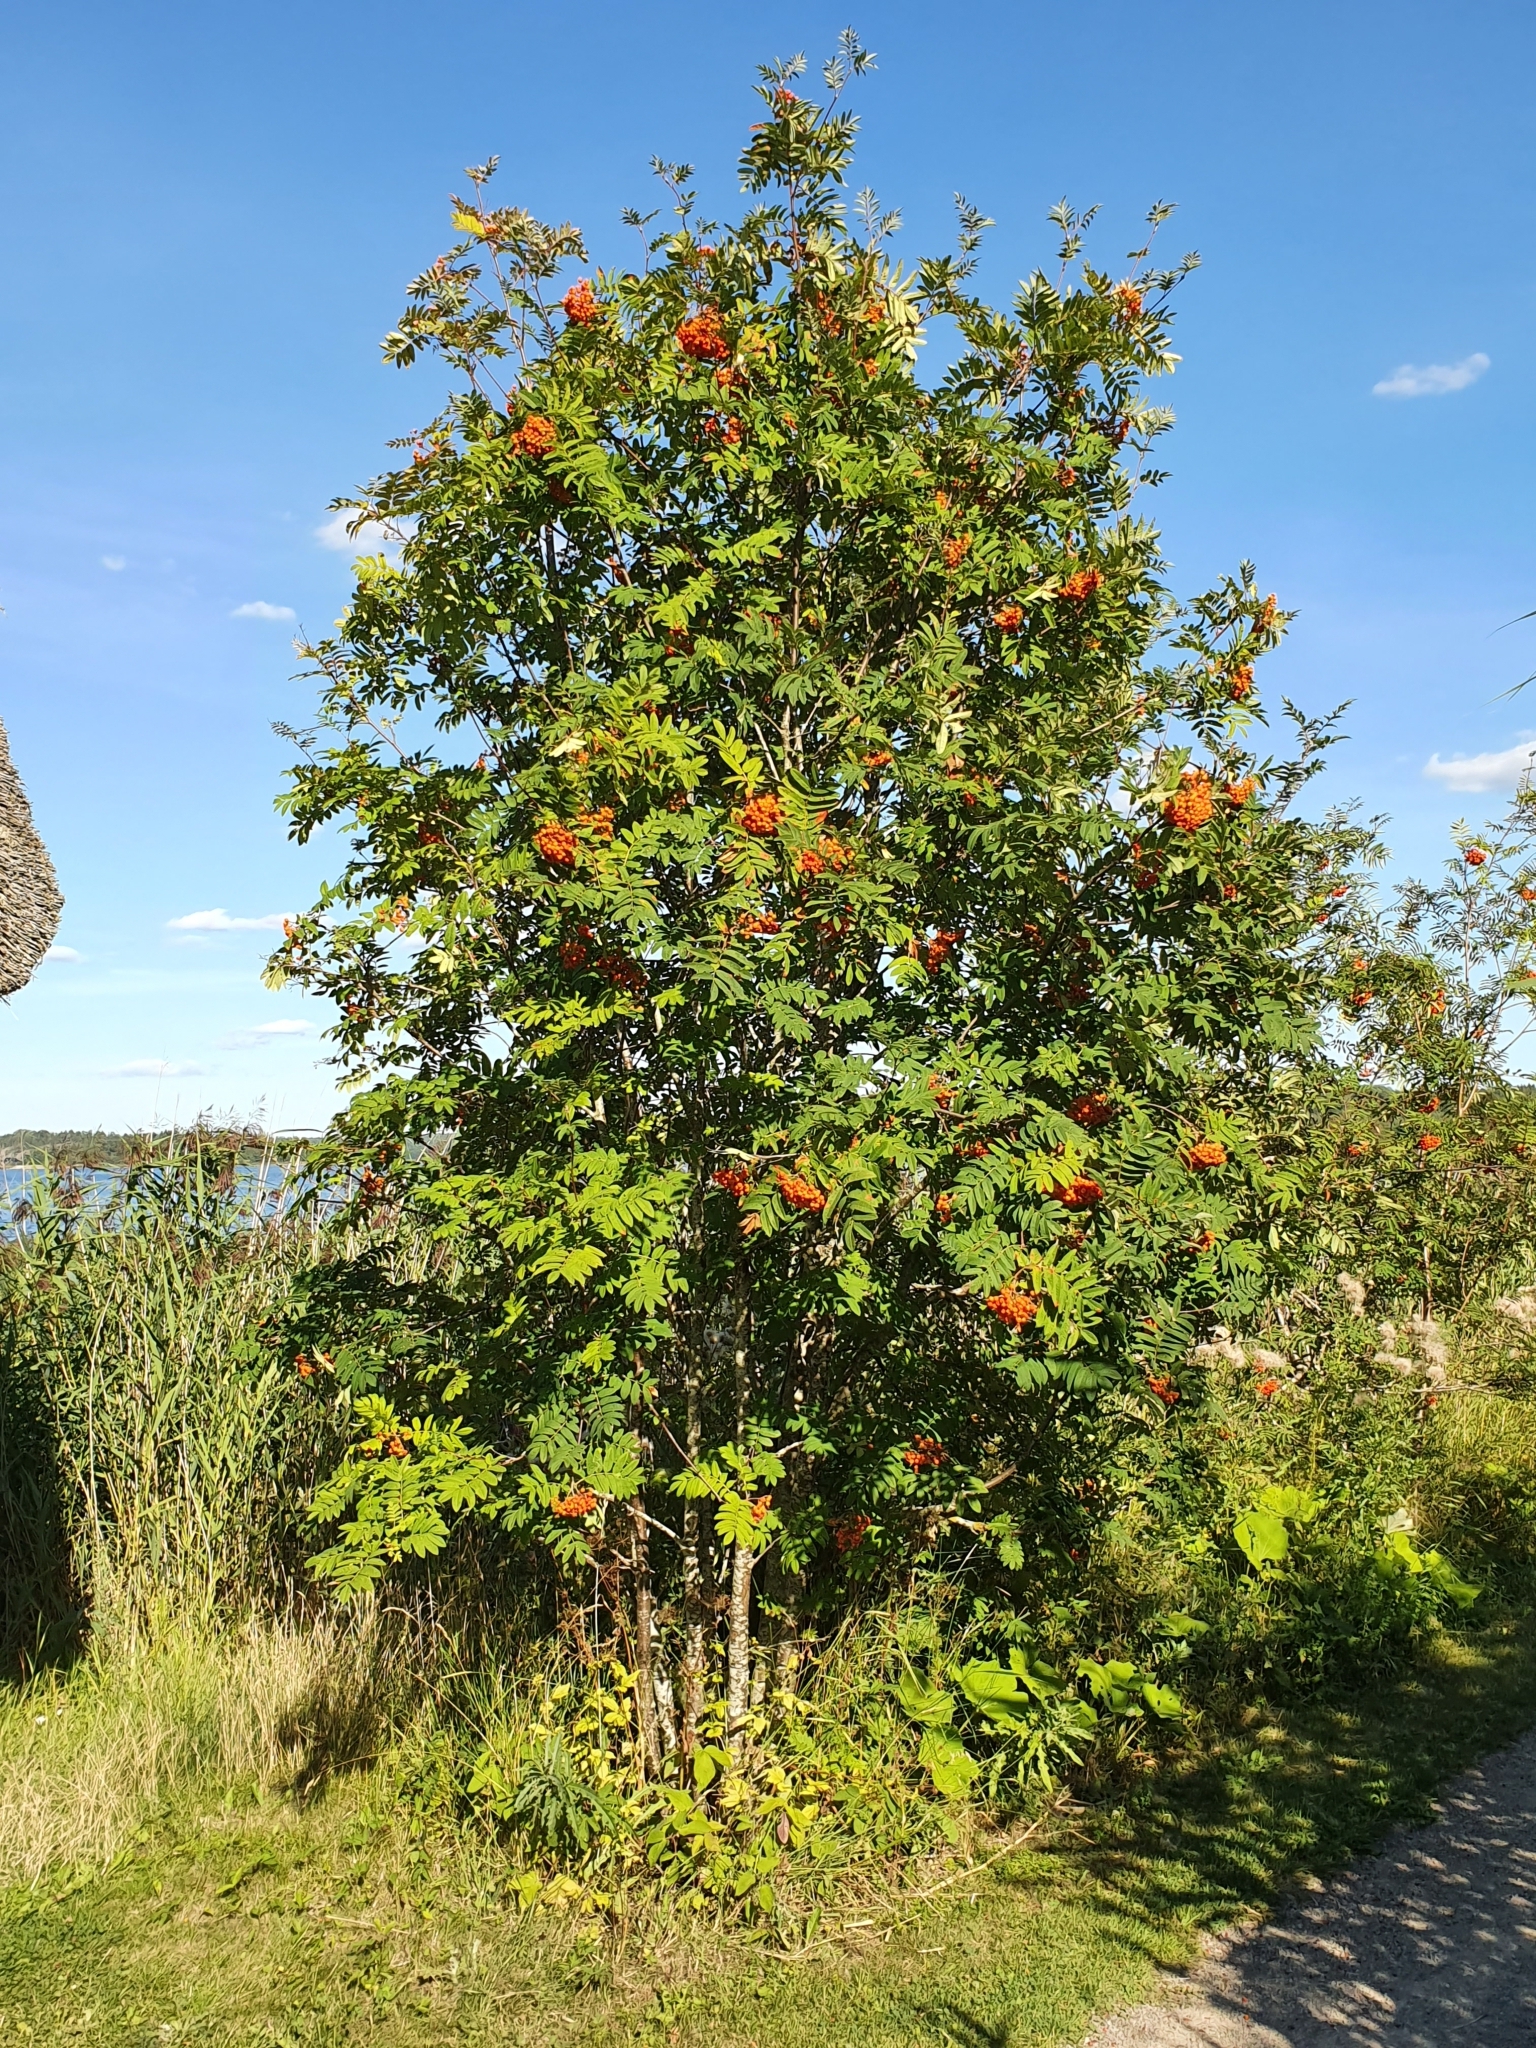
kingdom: Plantae
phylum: Tracheophyta
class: Magnoliopsida
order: Rosales
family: Rosaceae
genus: Sorbus
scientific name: Sorbus aucuparia
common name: Rowan
